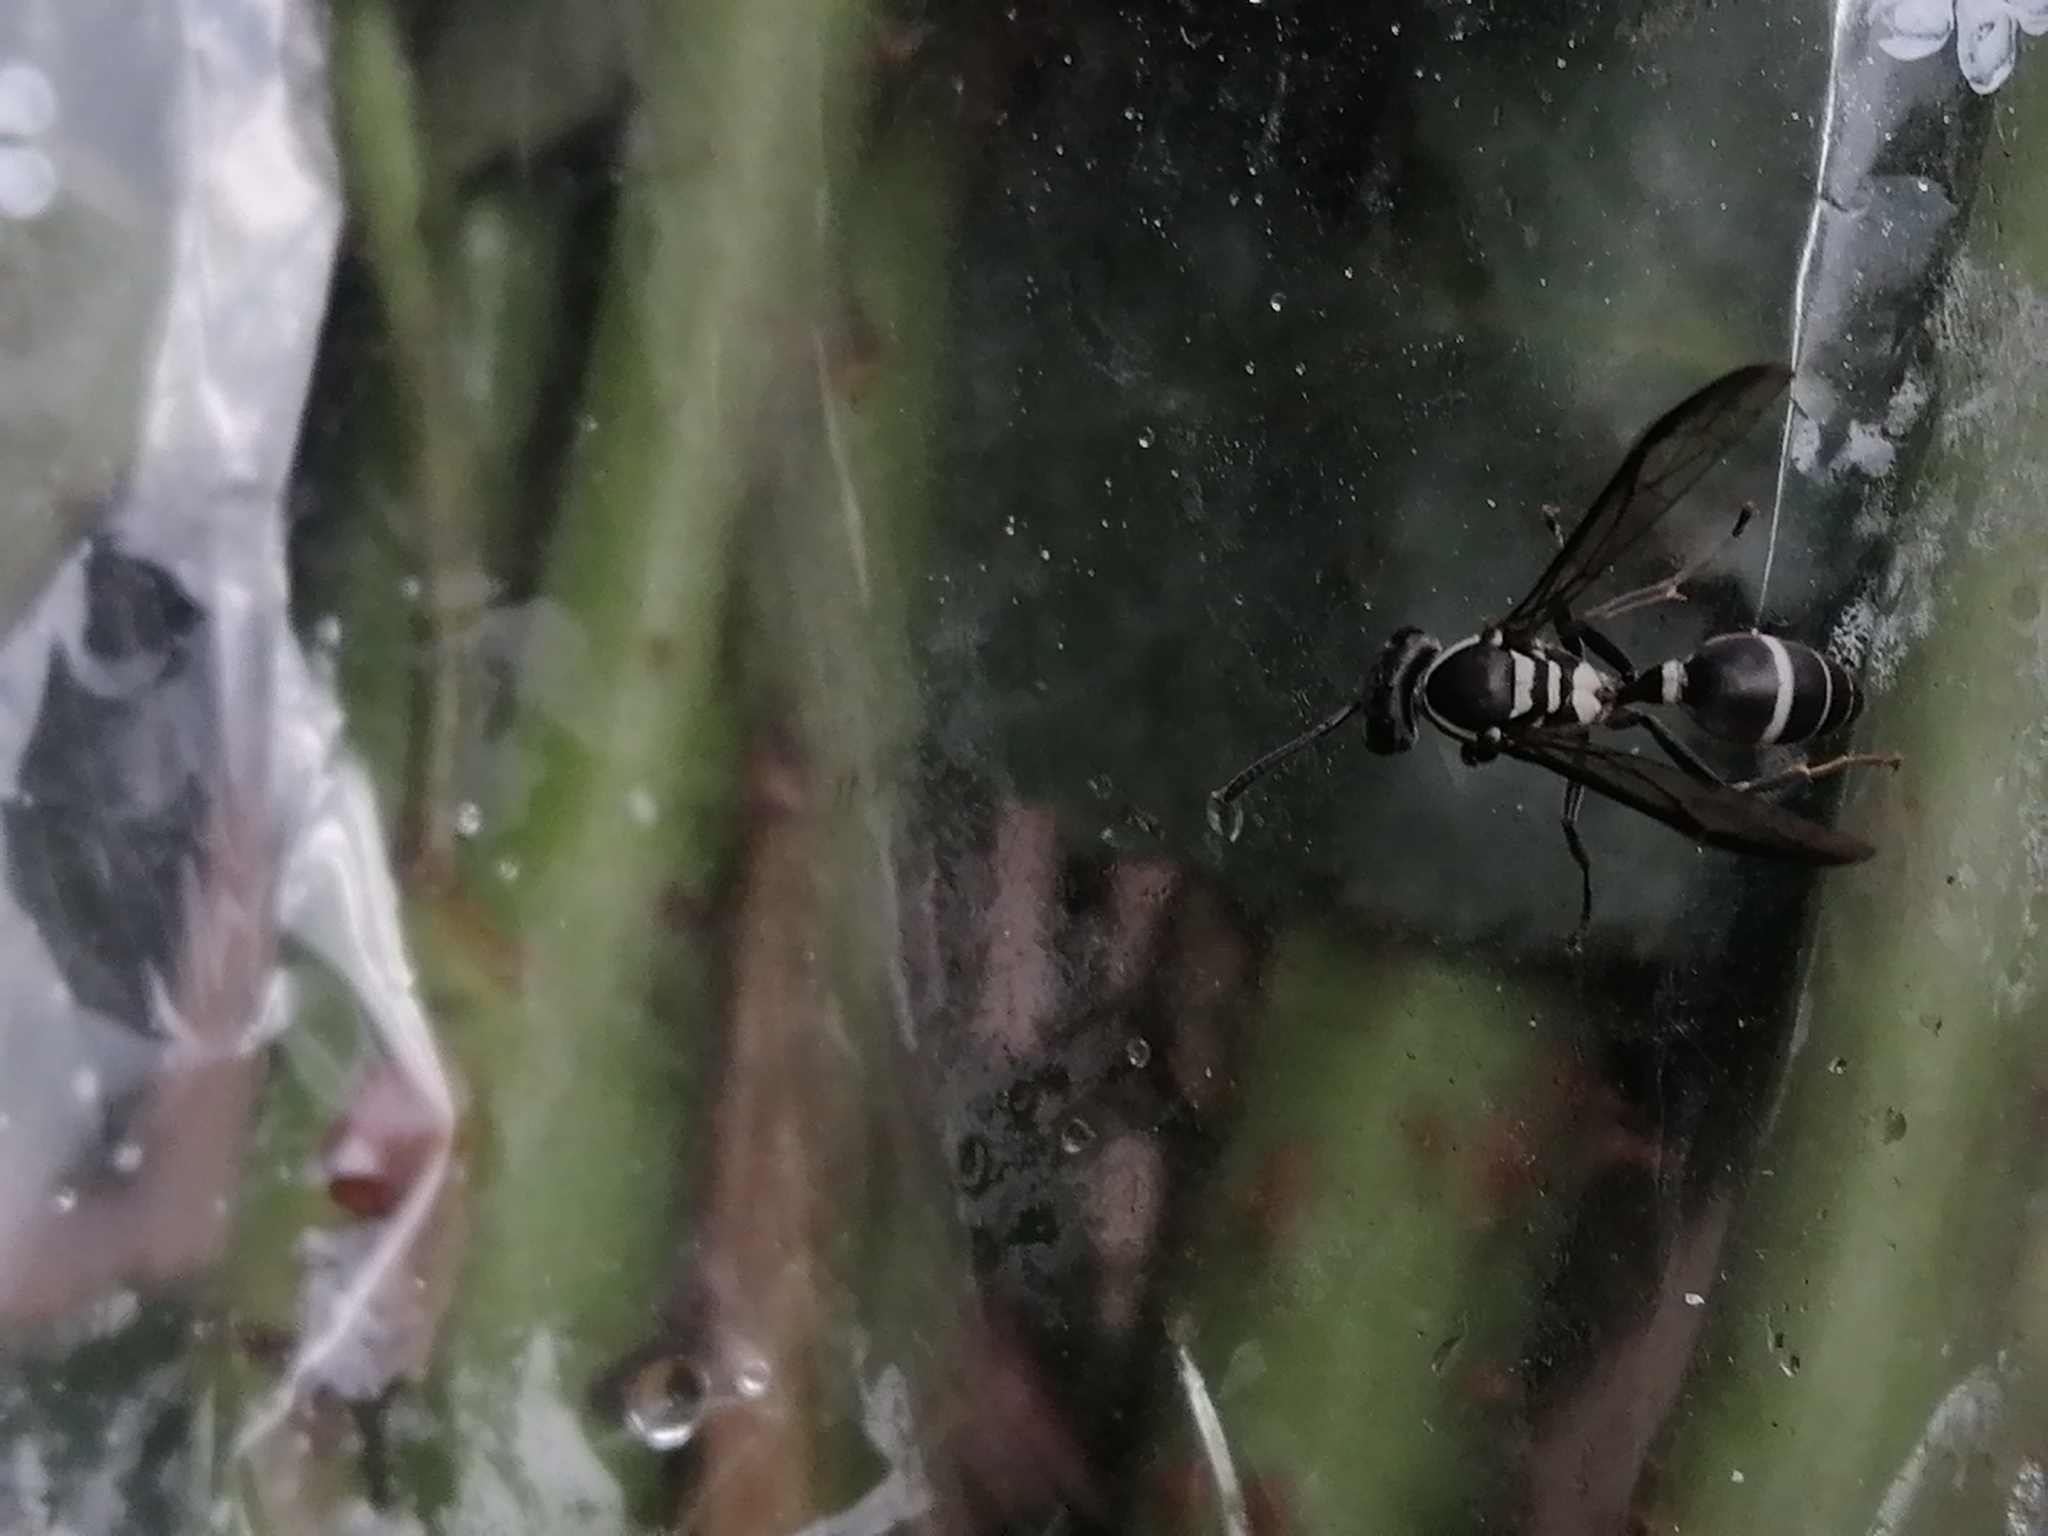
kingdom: Animalia
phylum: Arthropoda
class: Insecta
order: Hymenoptera
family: Eumenidae
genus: Polybia
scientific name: Polybia plebeja
